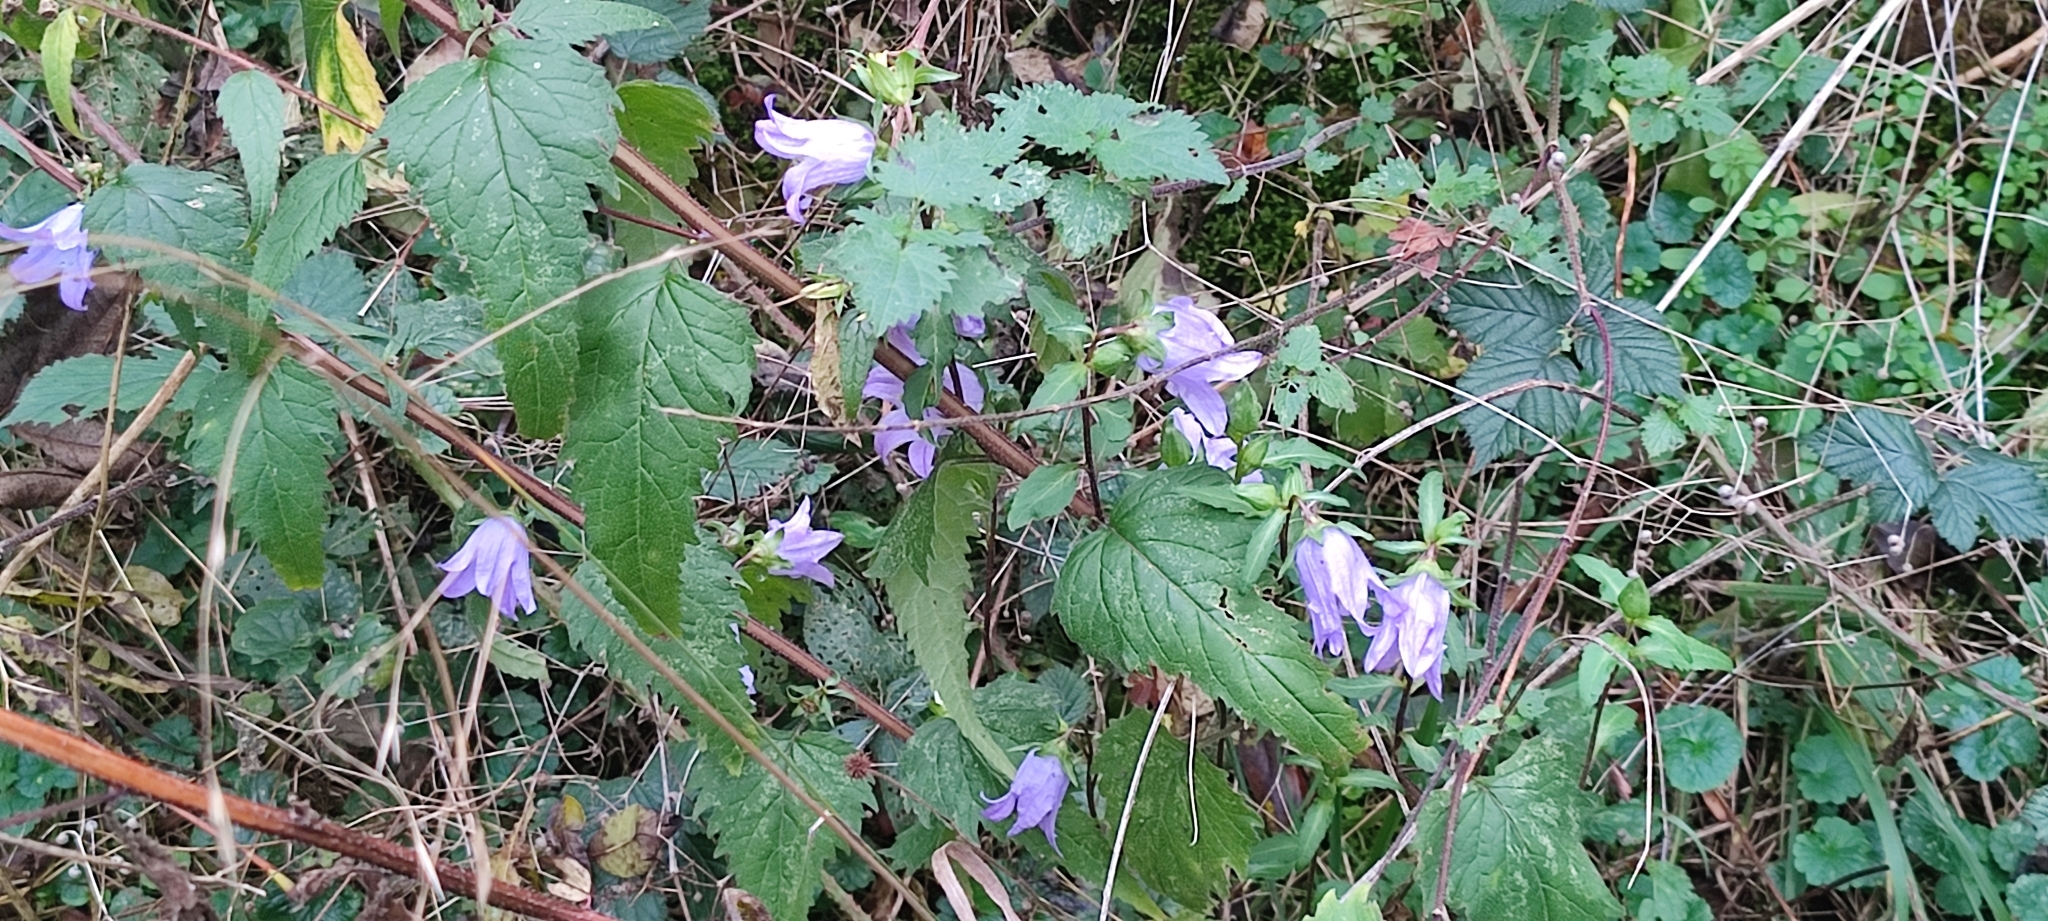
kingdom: Plantae
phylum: Tracheophyta
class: Magnoliopsida
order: Asterales
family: Campanulaceae
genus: Campanula
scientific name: Campanula trachelium
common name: Nettle-leaved bellflower
